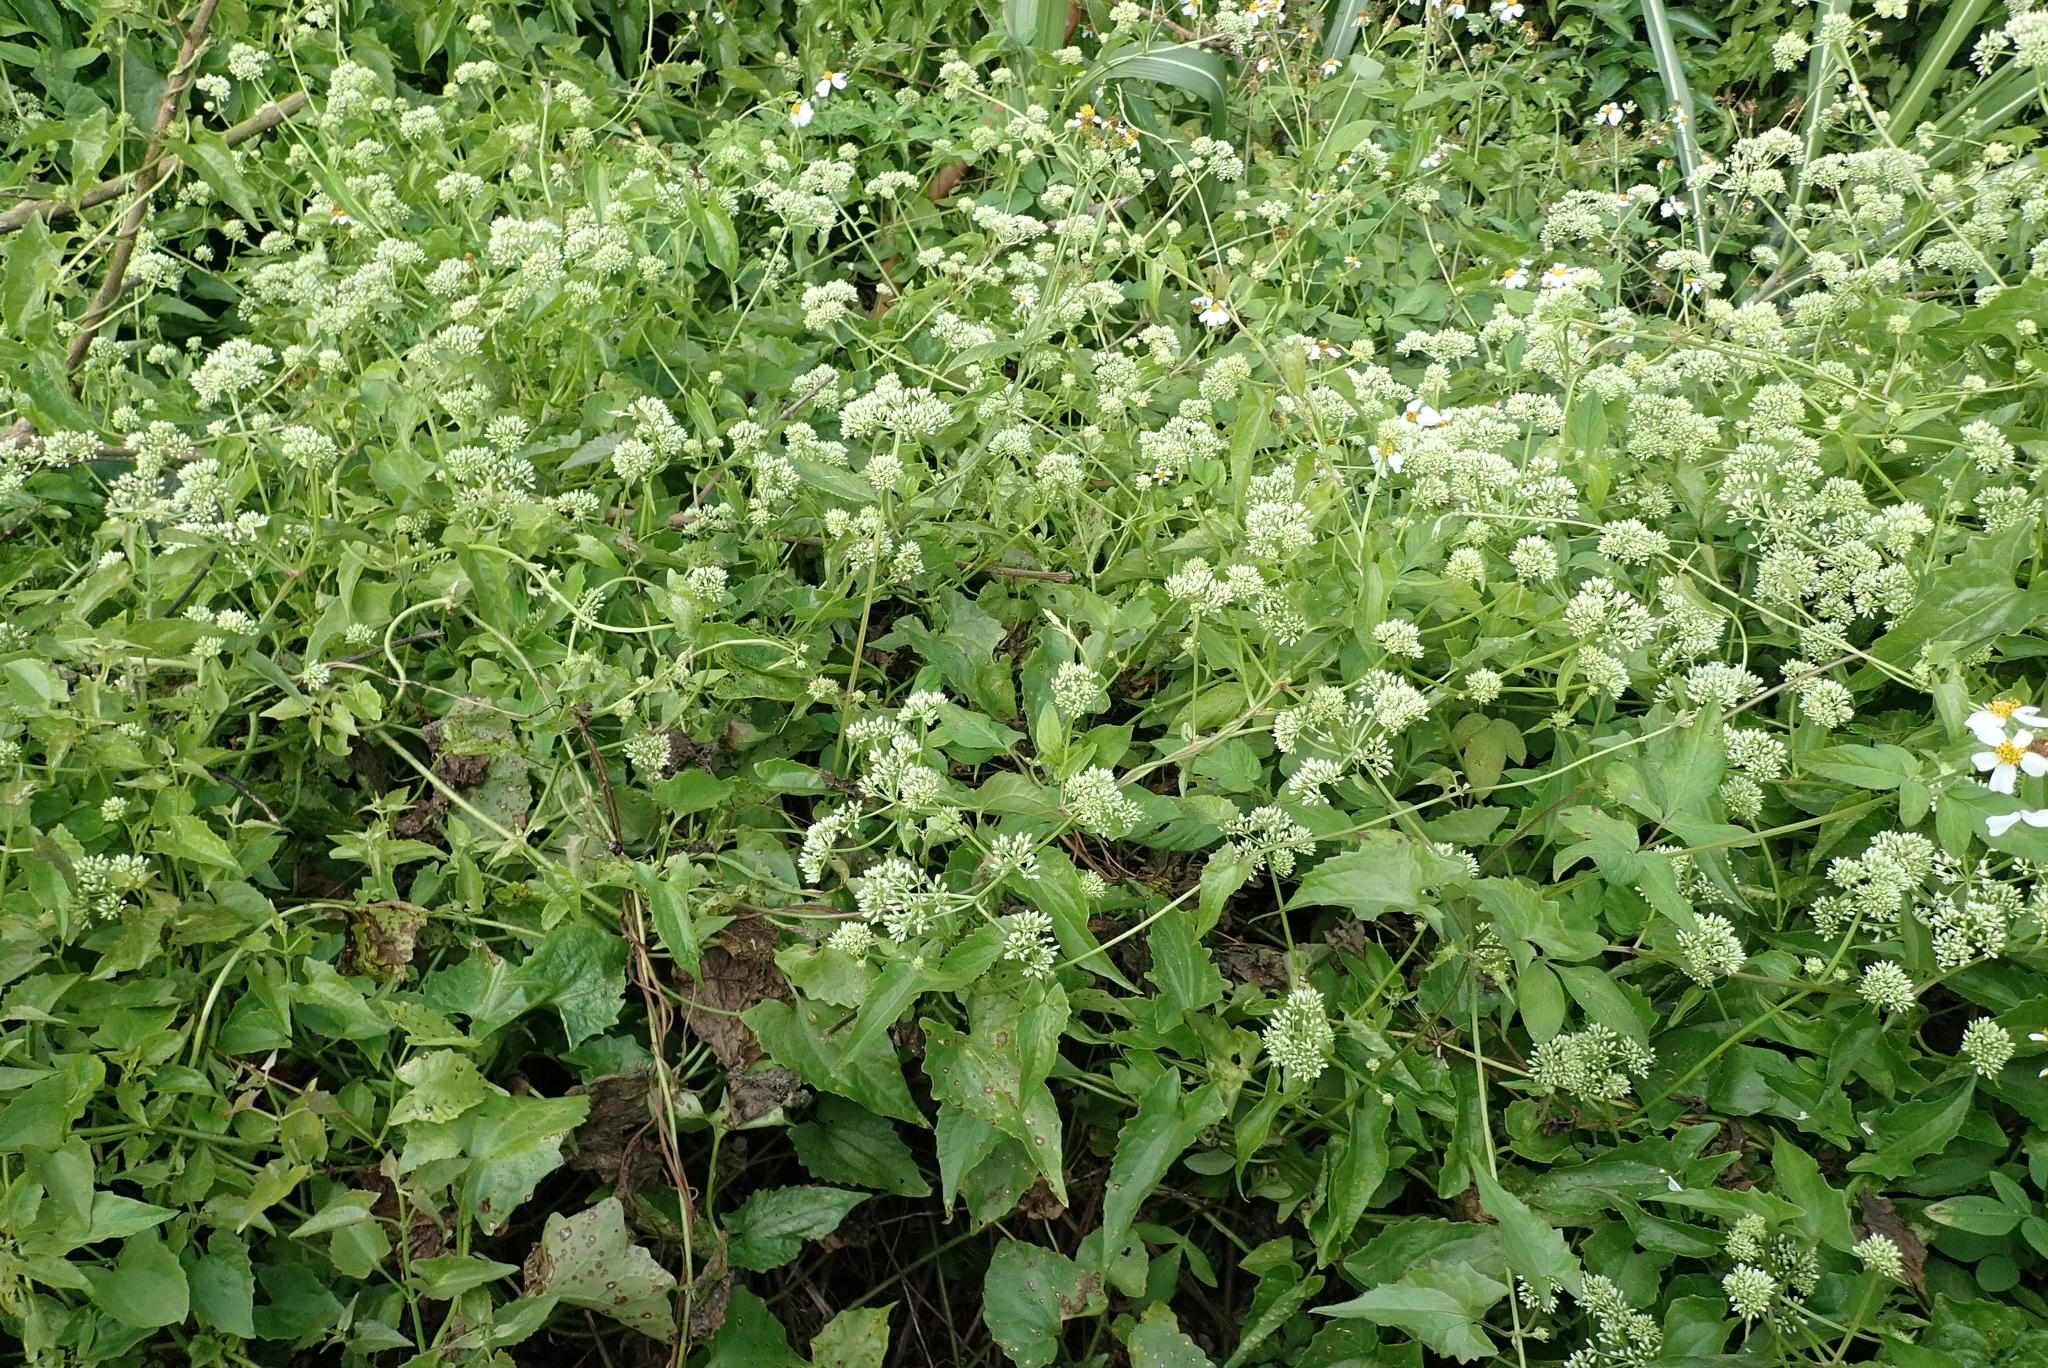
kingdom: Plantae
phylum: Tracheophyta
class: Magnoliopsida
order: Asterales
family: Asteraceae
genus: Mikania
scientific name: Mikania micrantha
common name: Mile-a-minute
